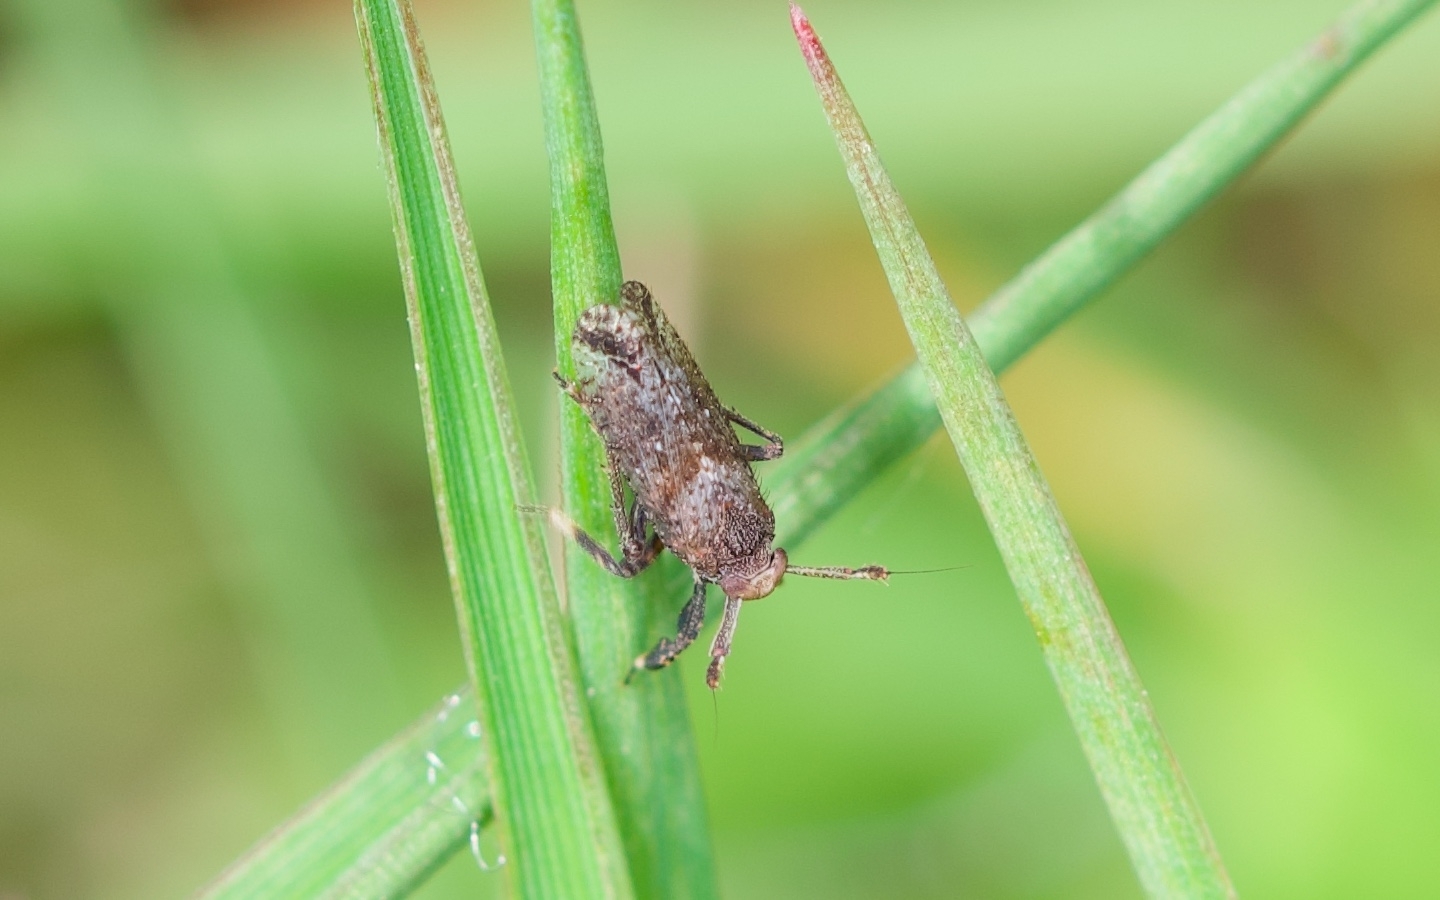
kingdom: Animalia
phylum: Arthropoda
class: Insecta
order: Hemiptera
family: Delphacidae
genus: Asiraca
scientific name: Asiraca clavicornis
